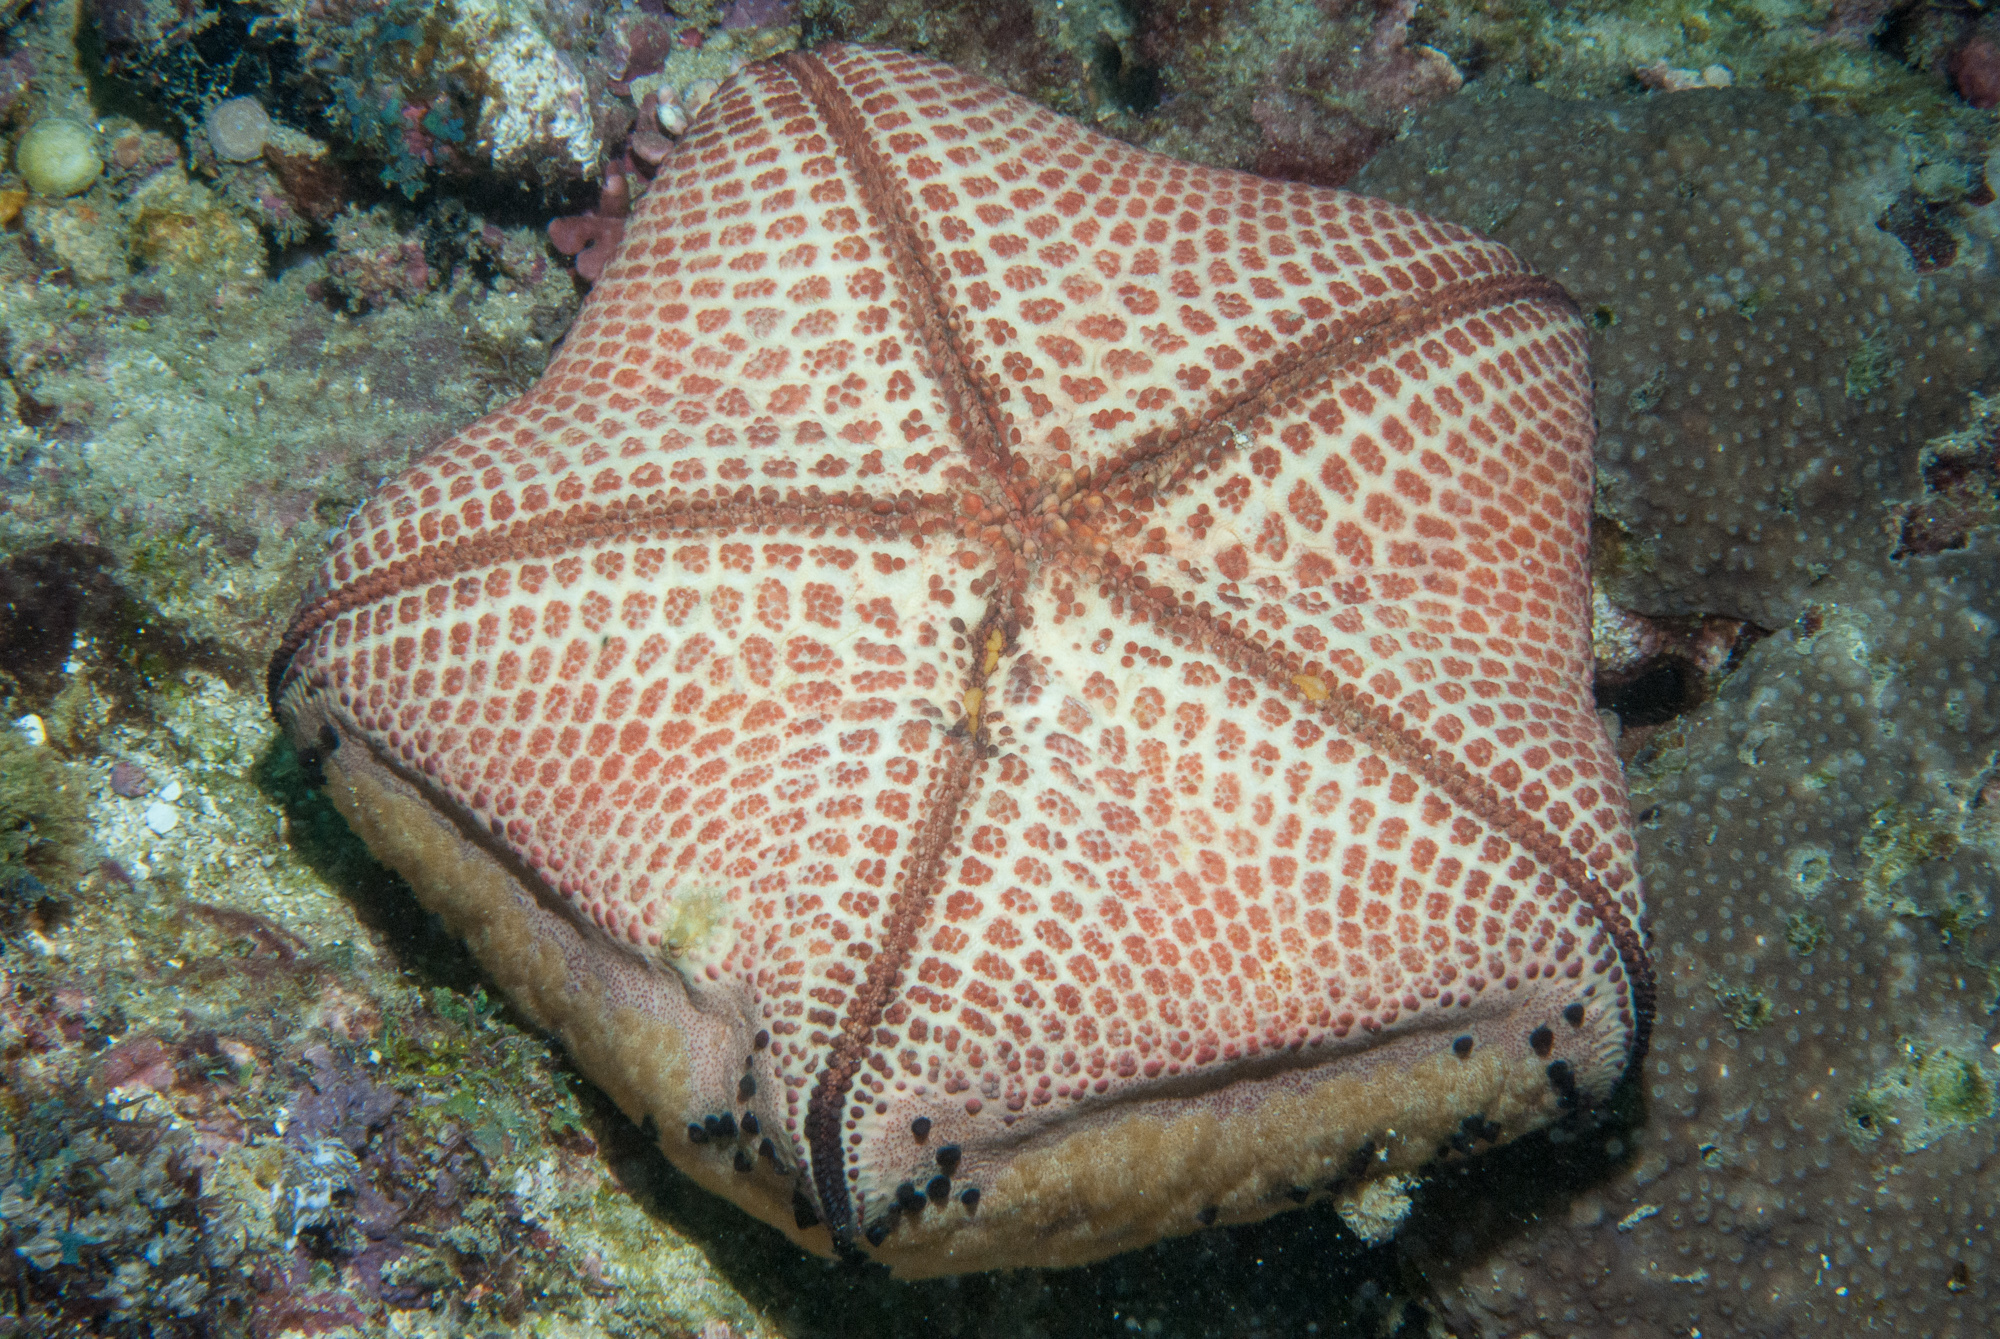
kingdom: Animalia
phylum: Echinodermata
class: Asteroidea
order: Valvatida
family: Oreasteridae
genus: Culcita
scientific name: Culcita schmideliana
